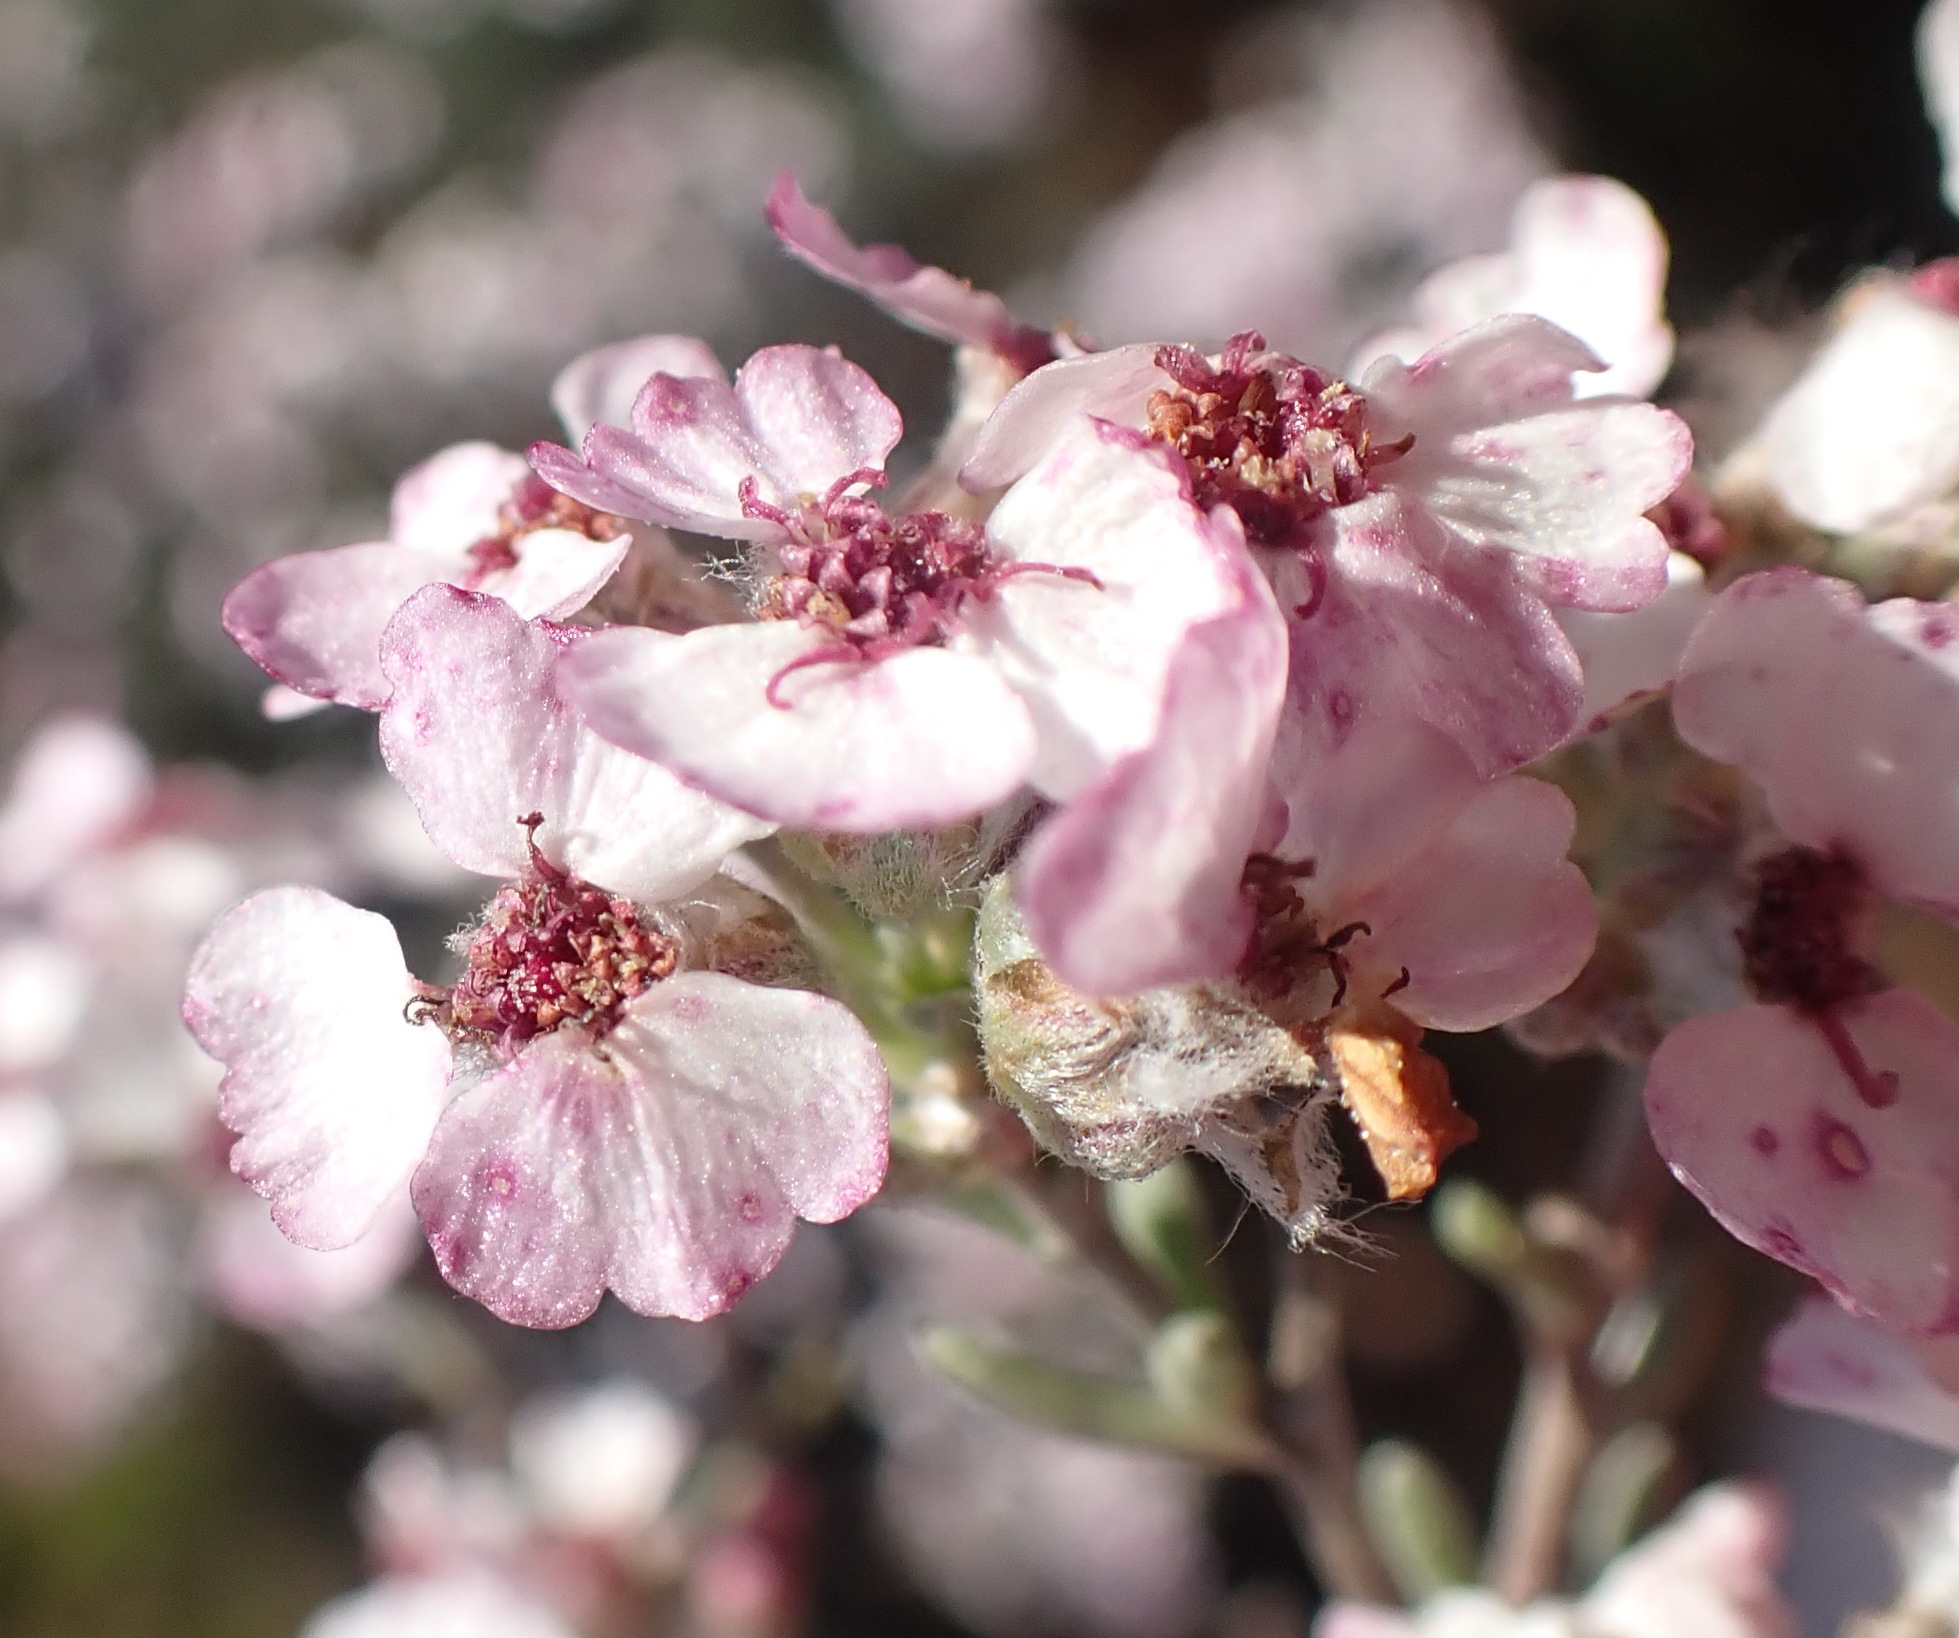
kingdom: Plantae
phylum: Tracheophyta
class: Magnoliopsida
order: Asterales
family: Asteraceae
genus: Eriocephalus
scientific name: Eriocephalus tenuipes
